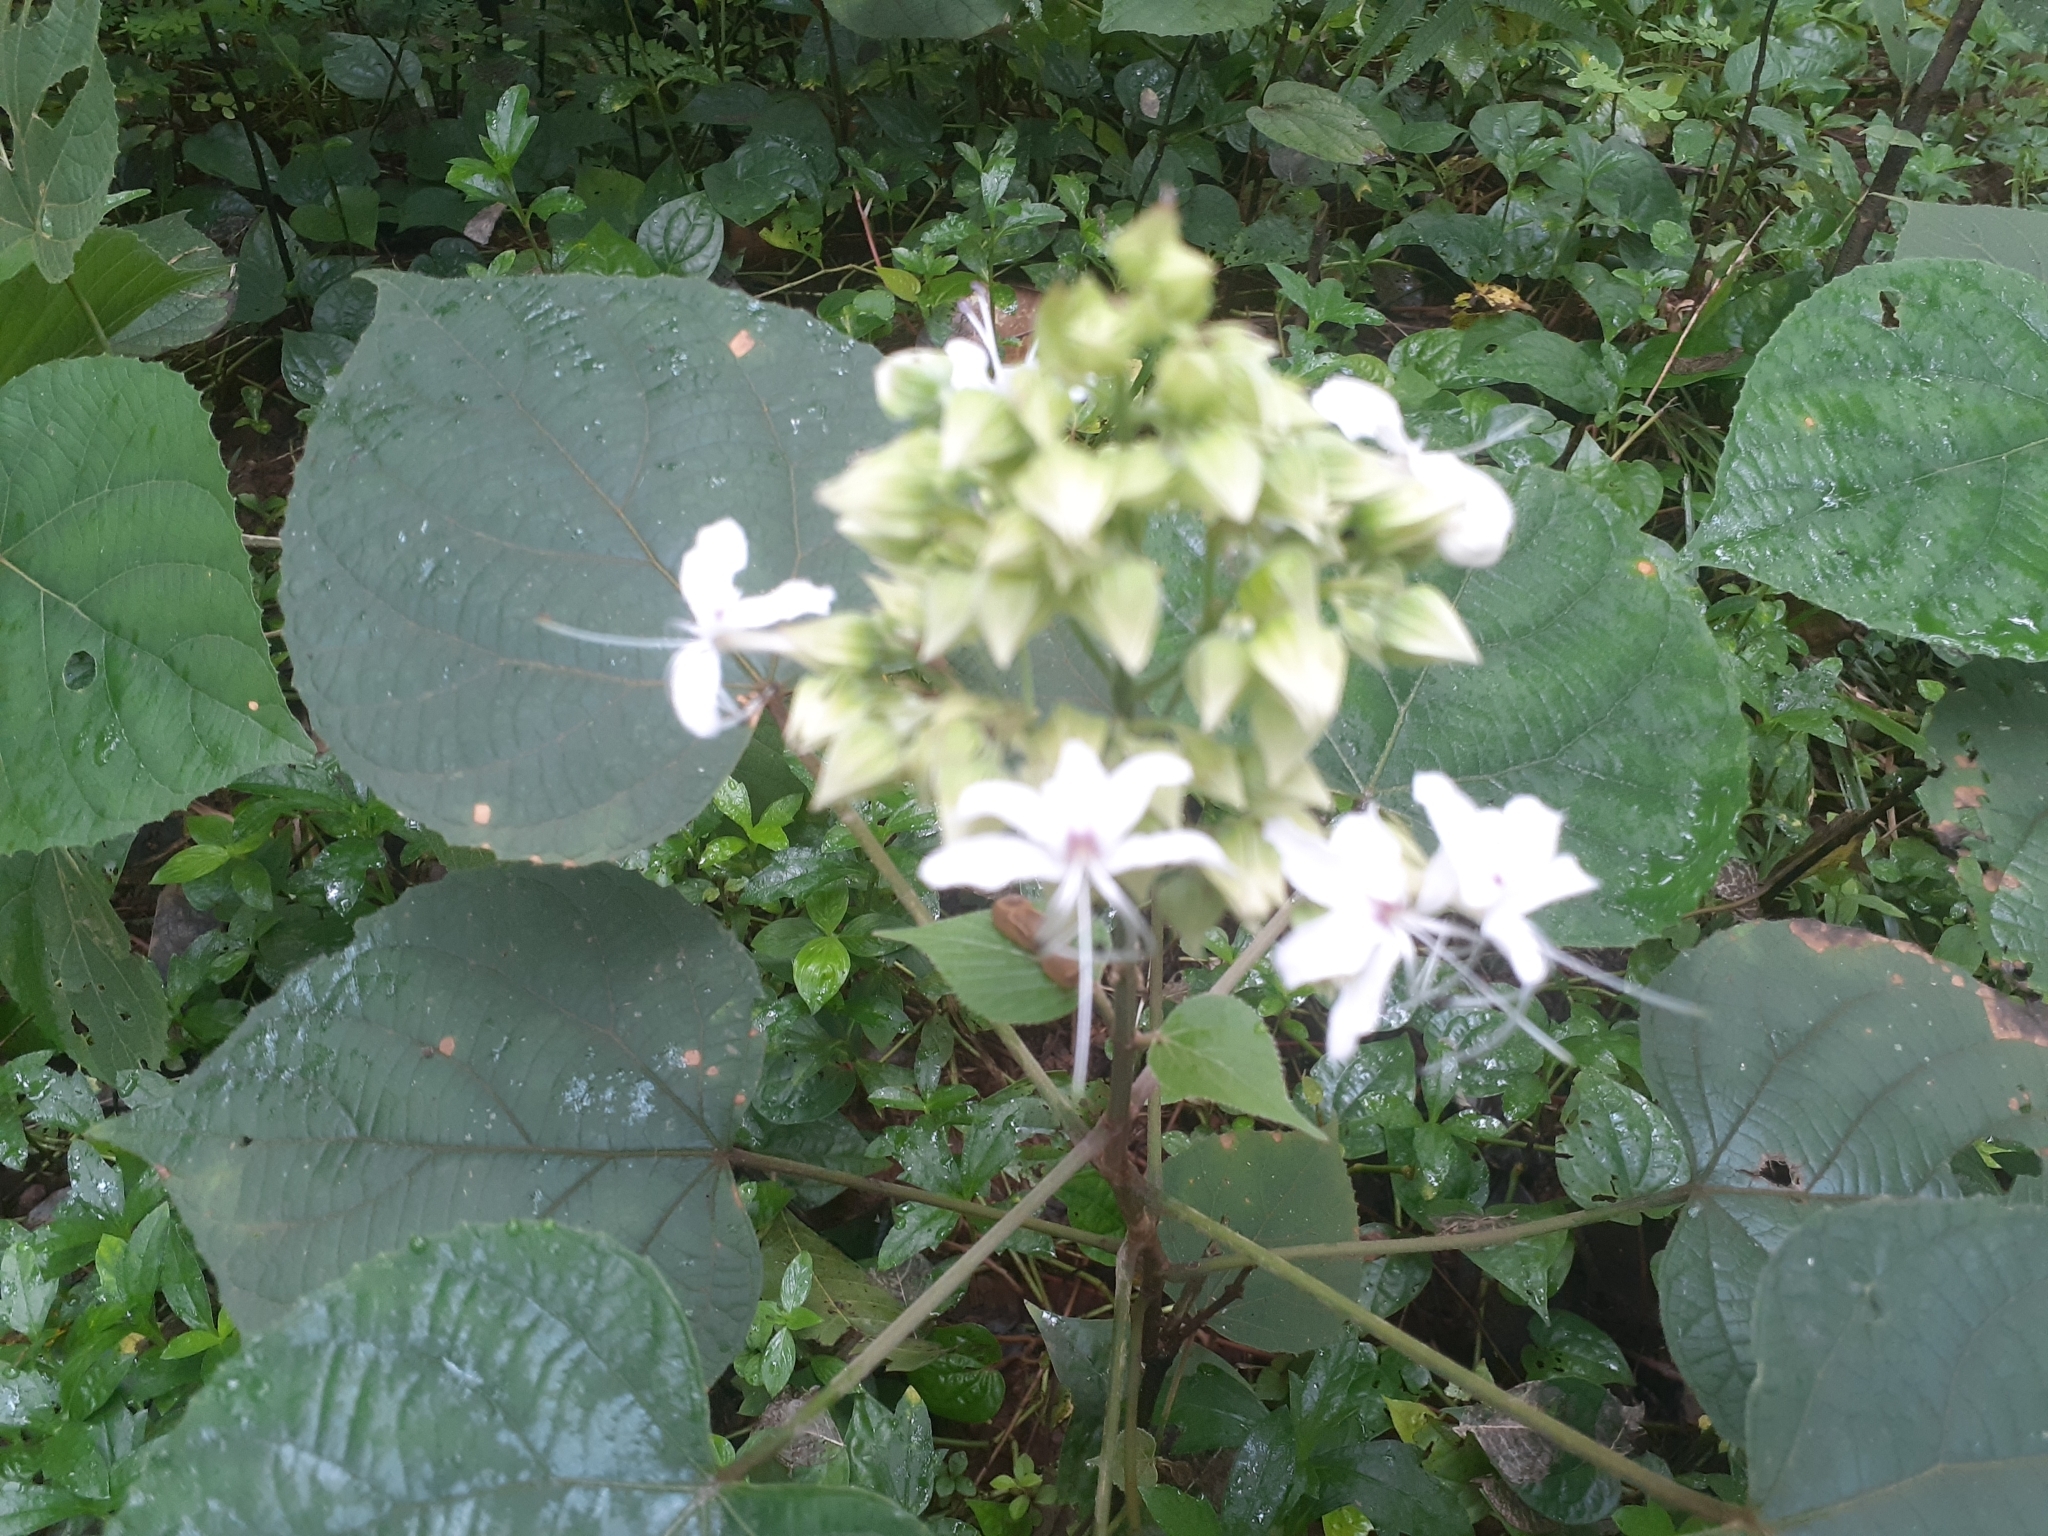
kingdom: Plantae
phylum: Tracheophyta
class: Magnoliopsida
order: Lamiales
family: Lamiaceae
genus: Clerodendrum
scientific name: Clerodendrum infortunatum
